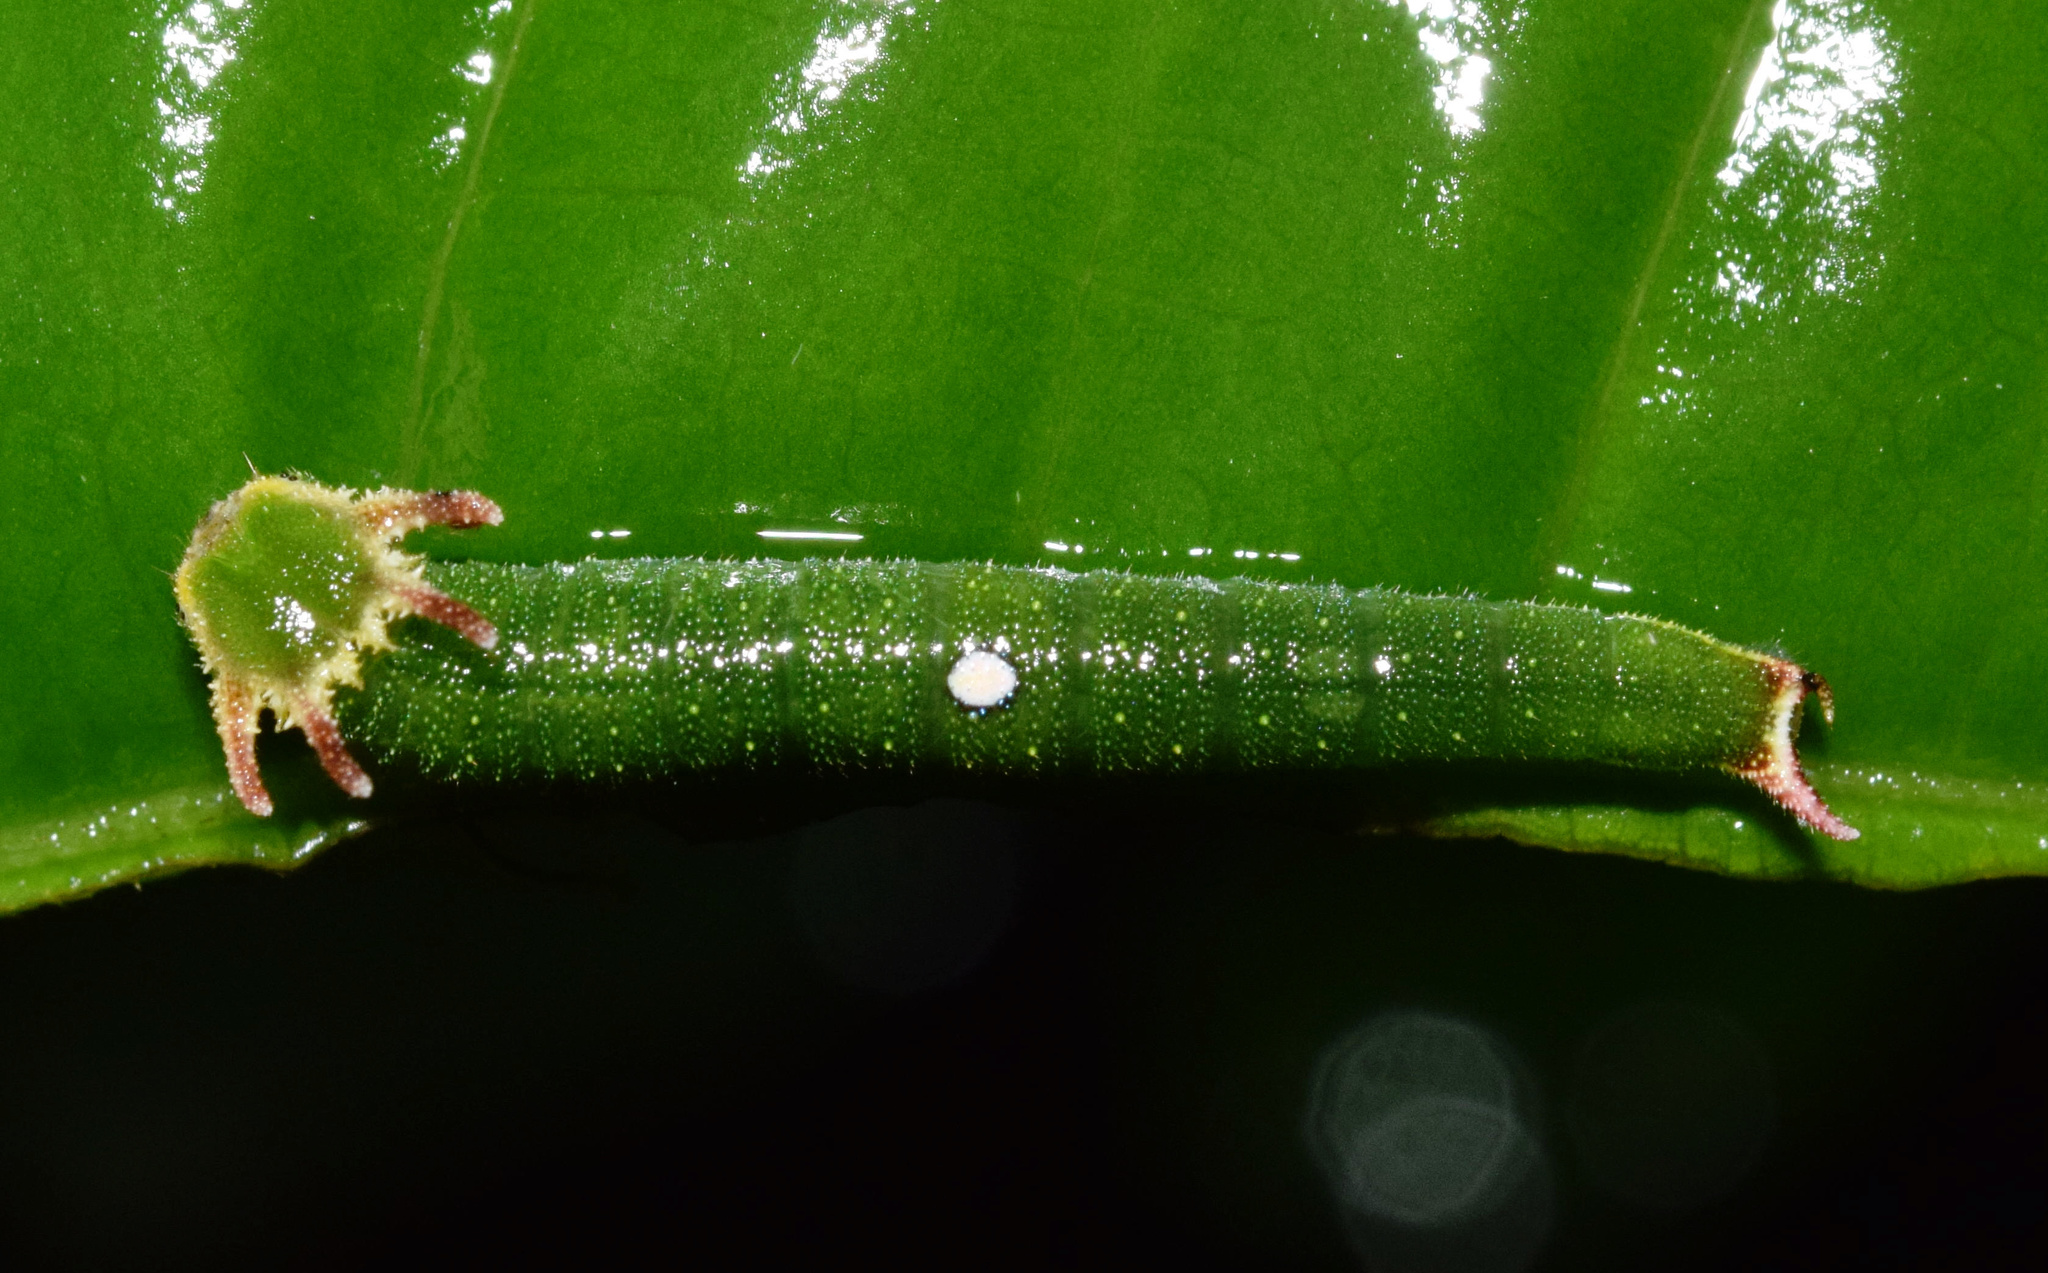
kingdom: Animalia
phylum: Arthropoda
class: Insecta
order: Lepidoptera
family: Nymphalidae
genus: Charaxes
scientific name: Charaxes varanes
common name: Common pearl charaxes
